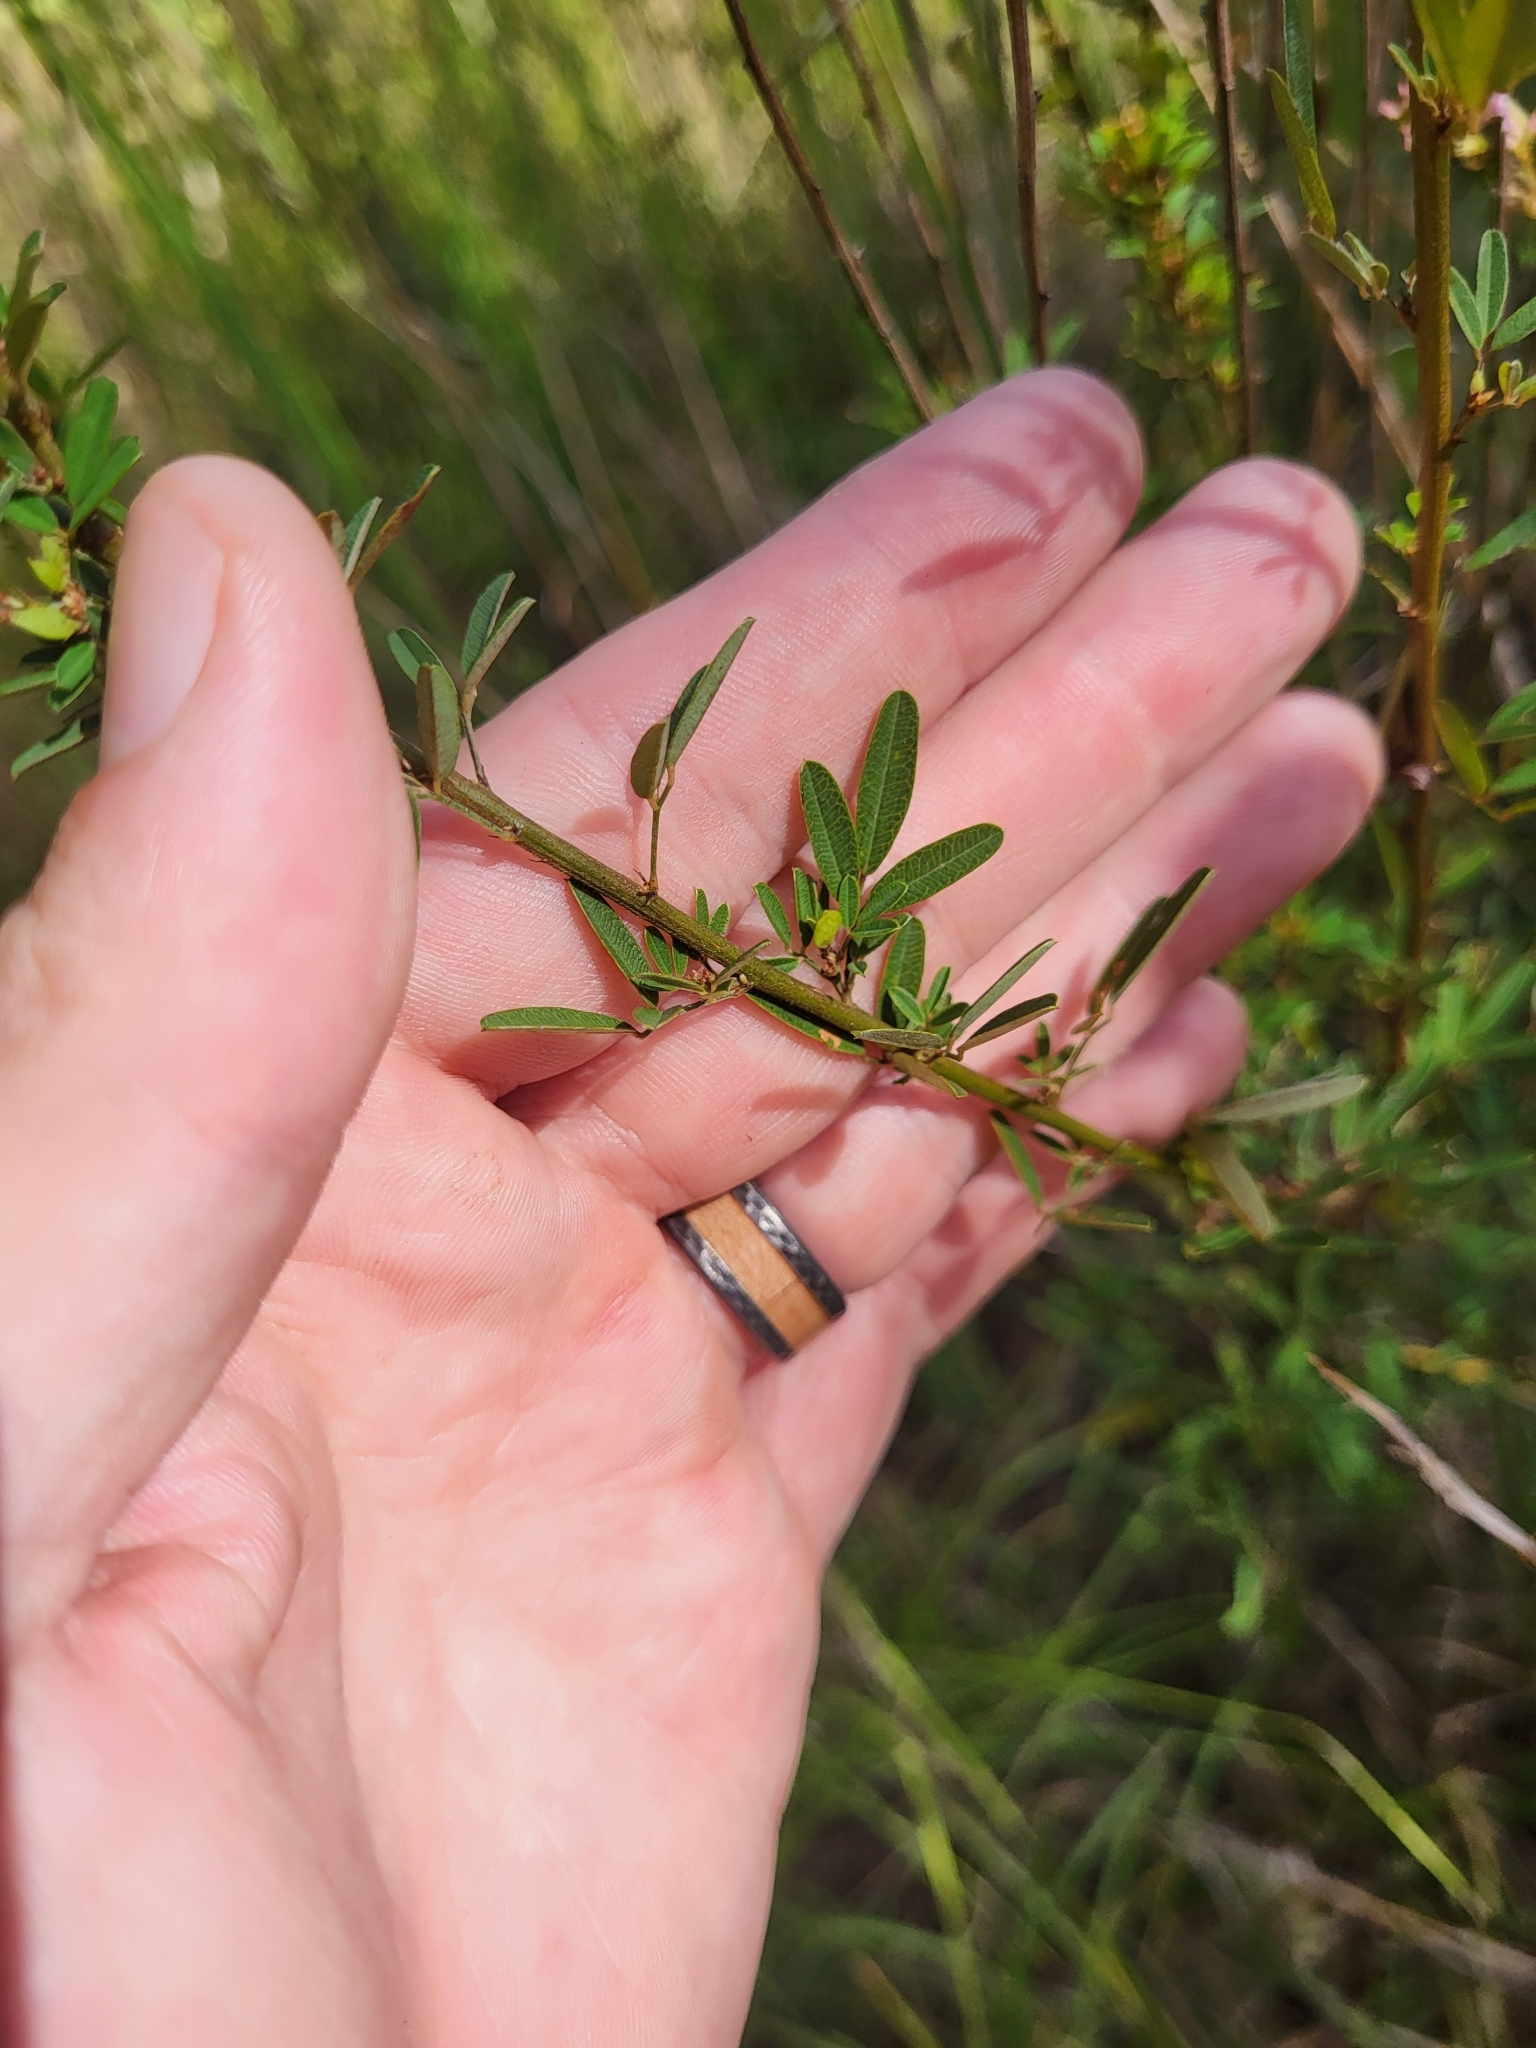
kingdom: Plantae
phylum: Tracheophyta
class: Magnoliopsida
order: Fabales
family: Fabaceae
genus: Lespedeza
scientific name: Lespedeza virginica
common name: Slender bush-clover
